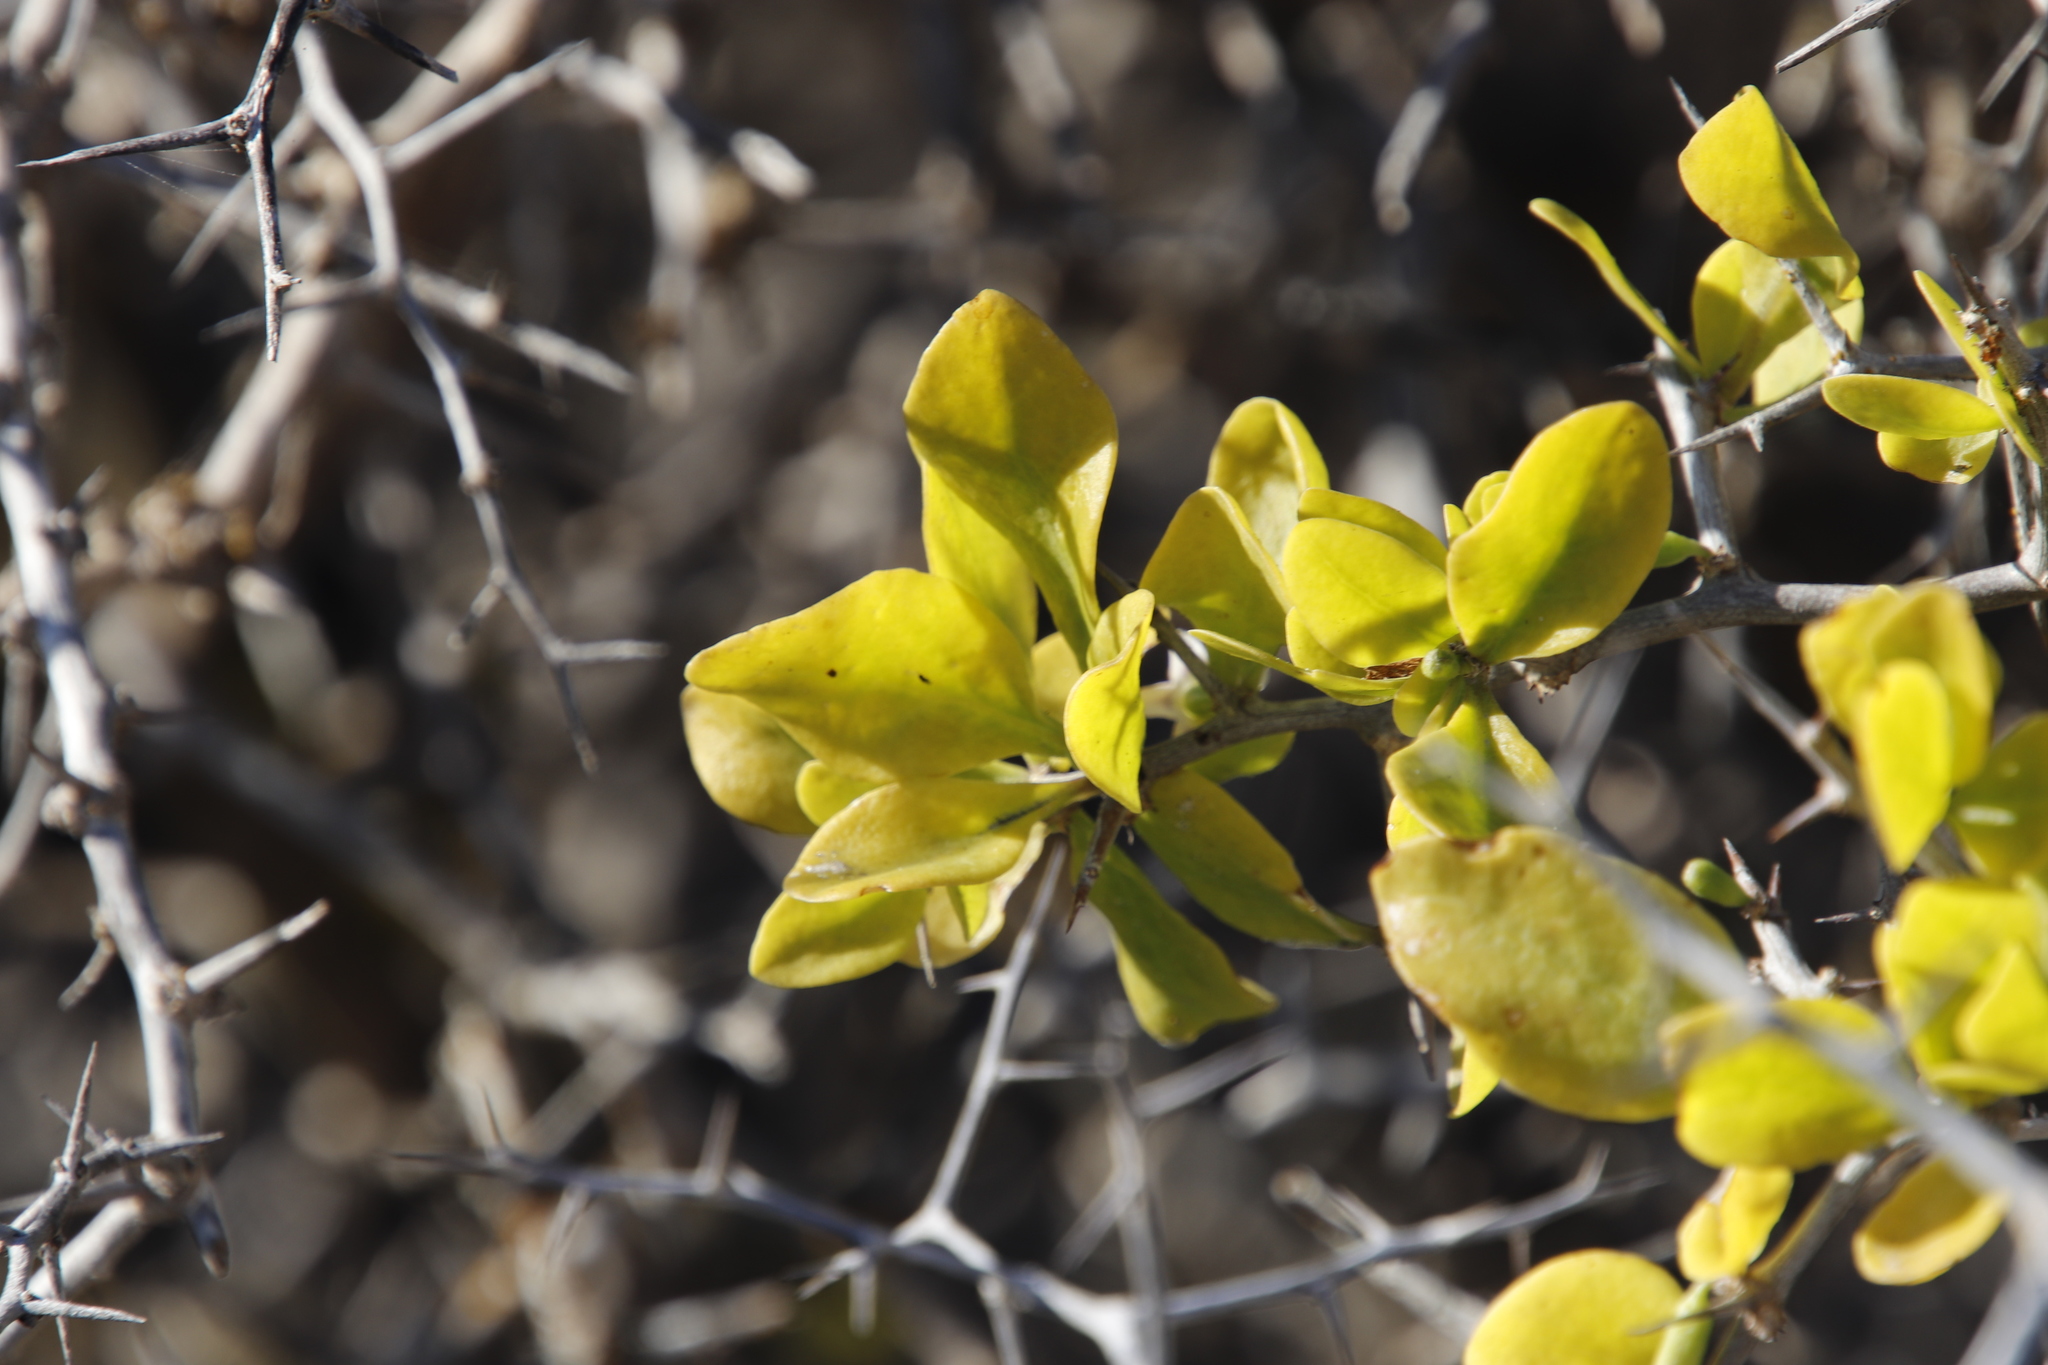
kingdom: Plantae
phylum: Tracheophyta
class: Magnoliopsida
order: Solanales
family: Solanaceae
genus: Lycium
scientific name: Lycium ferocissimum
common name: African boxthorn
